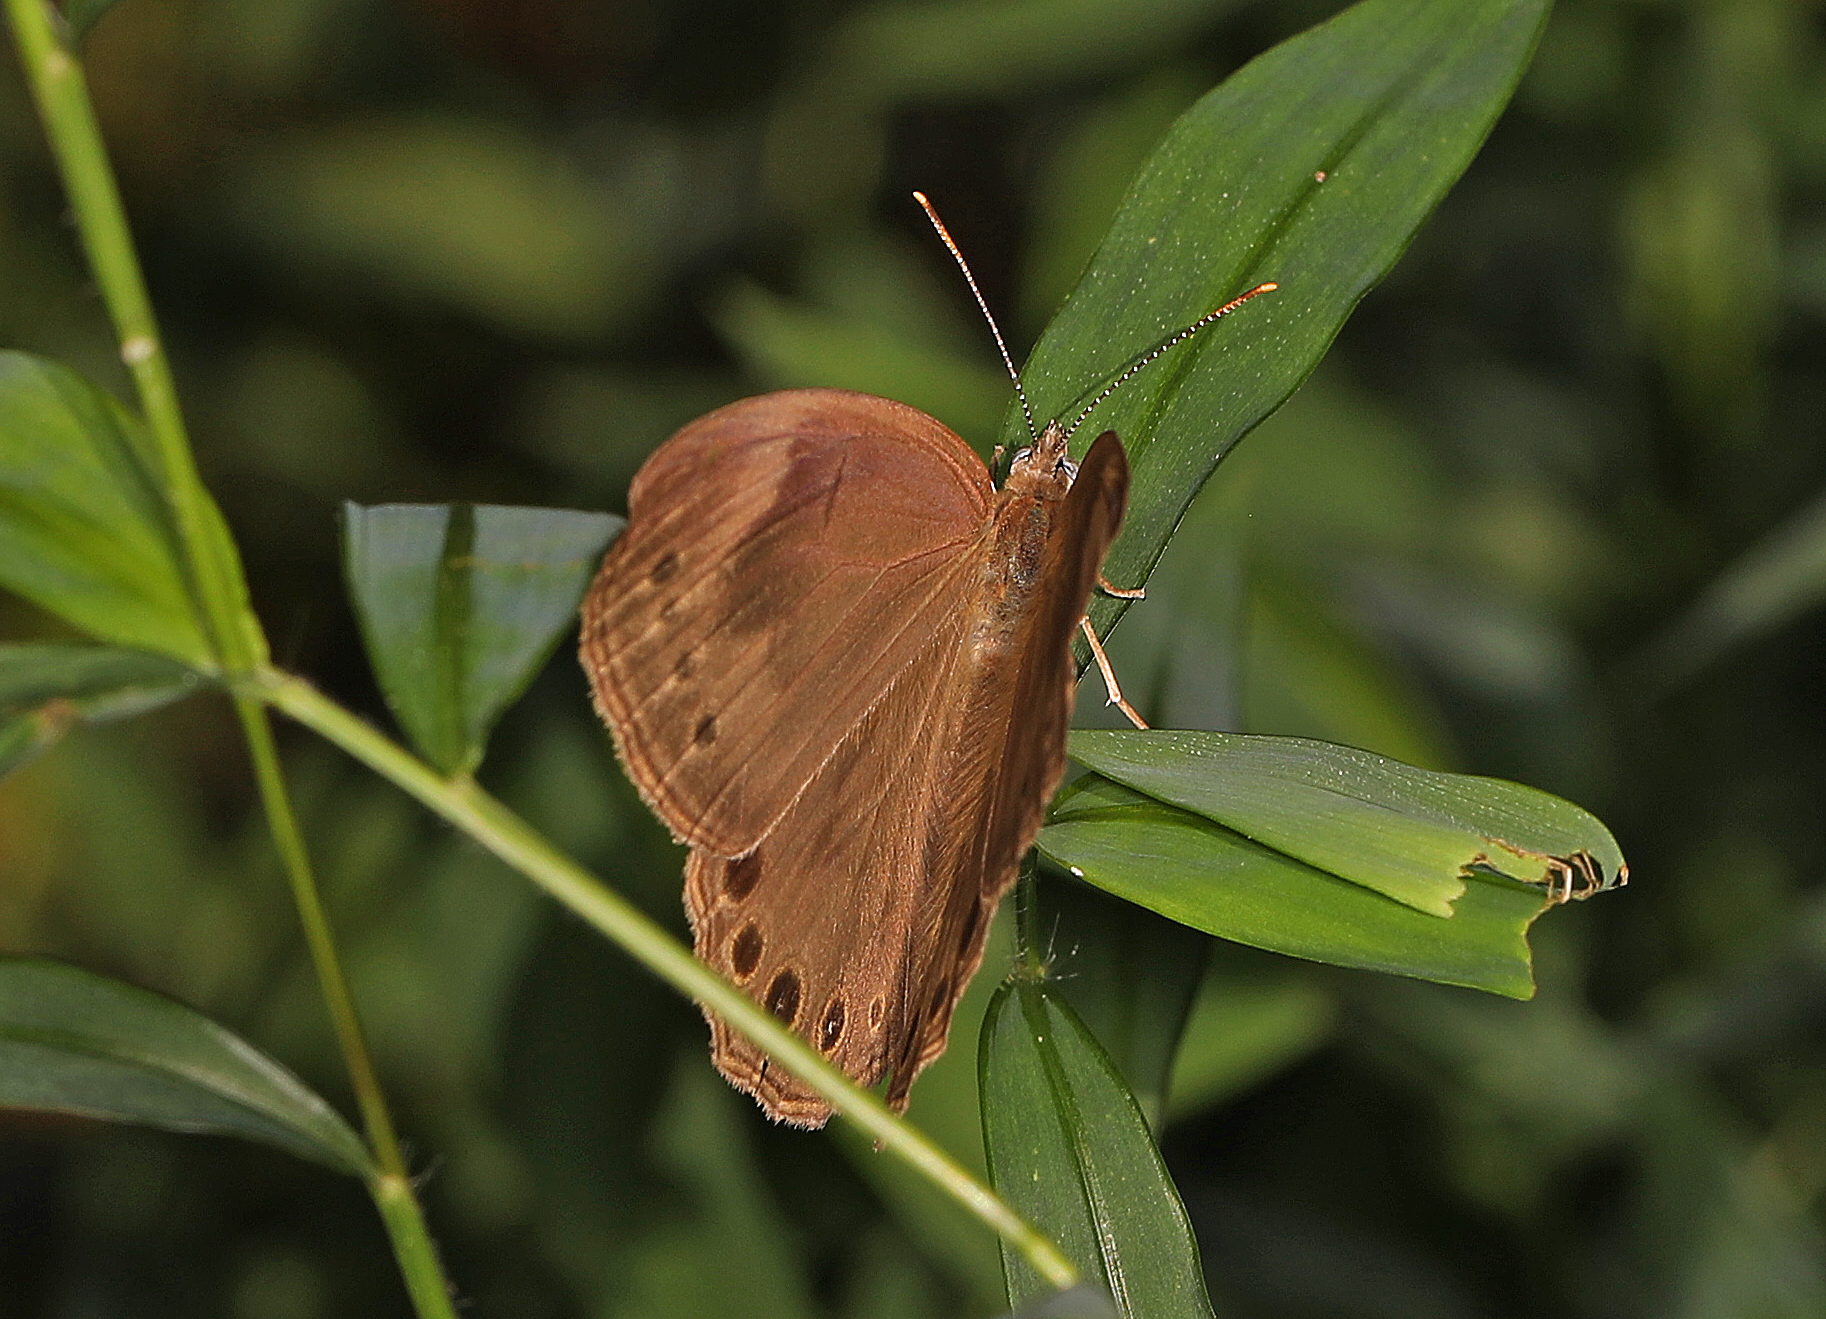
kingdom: Animalia
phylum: Arthropoda
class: Insecta
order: Lepidoptera
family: Nymphalidae
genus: Lethe
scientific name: Lethe eurydice
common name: Eyed brown
